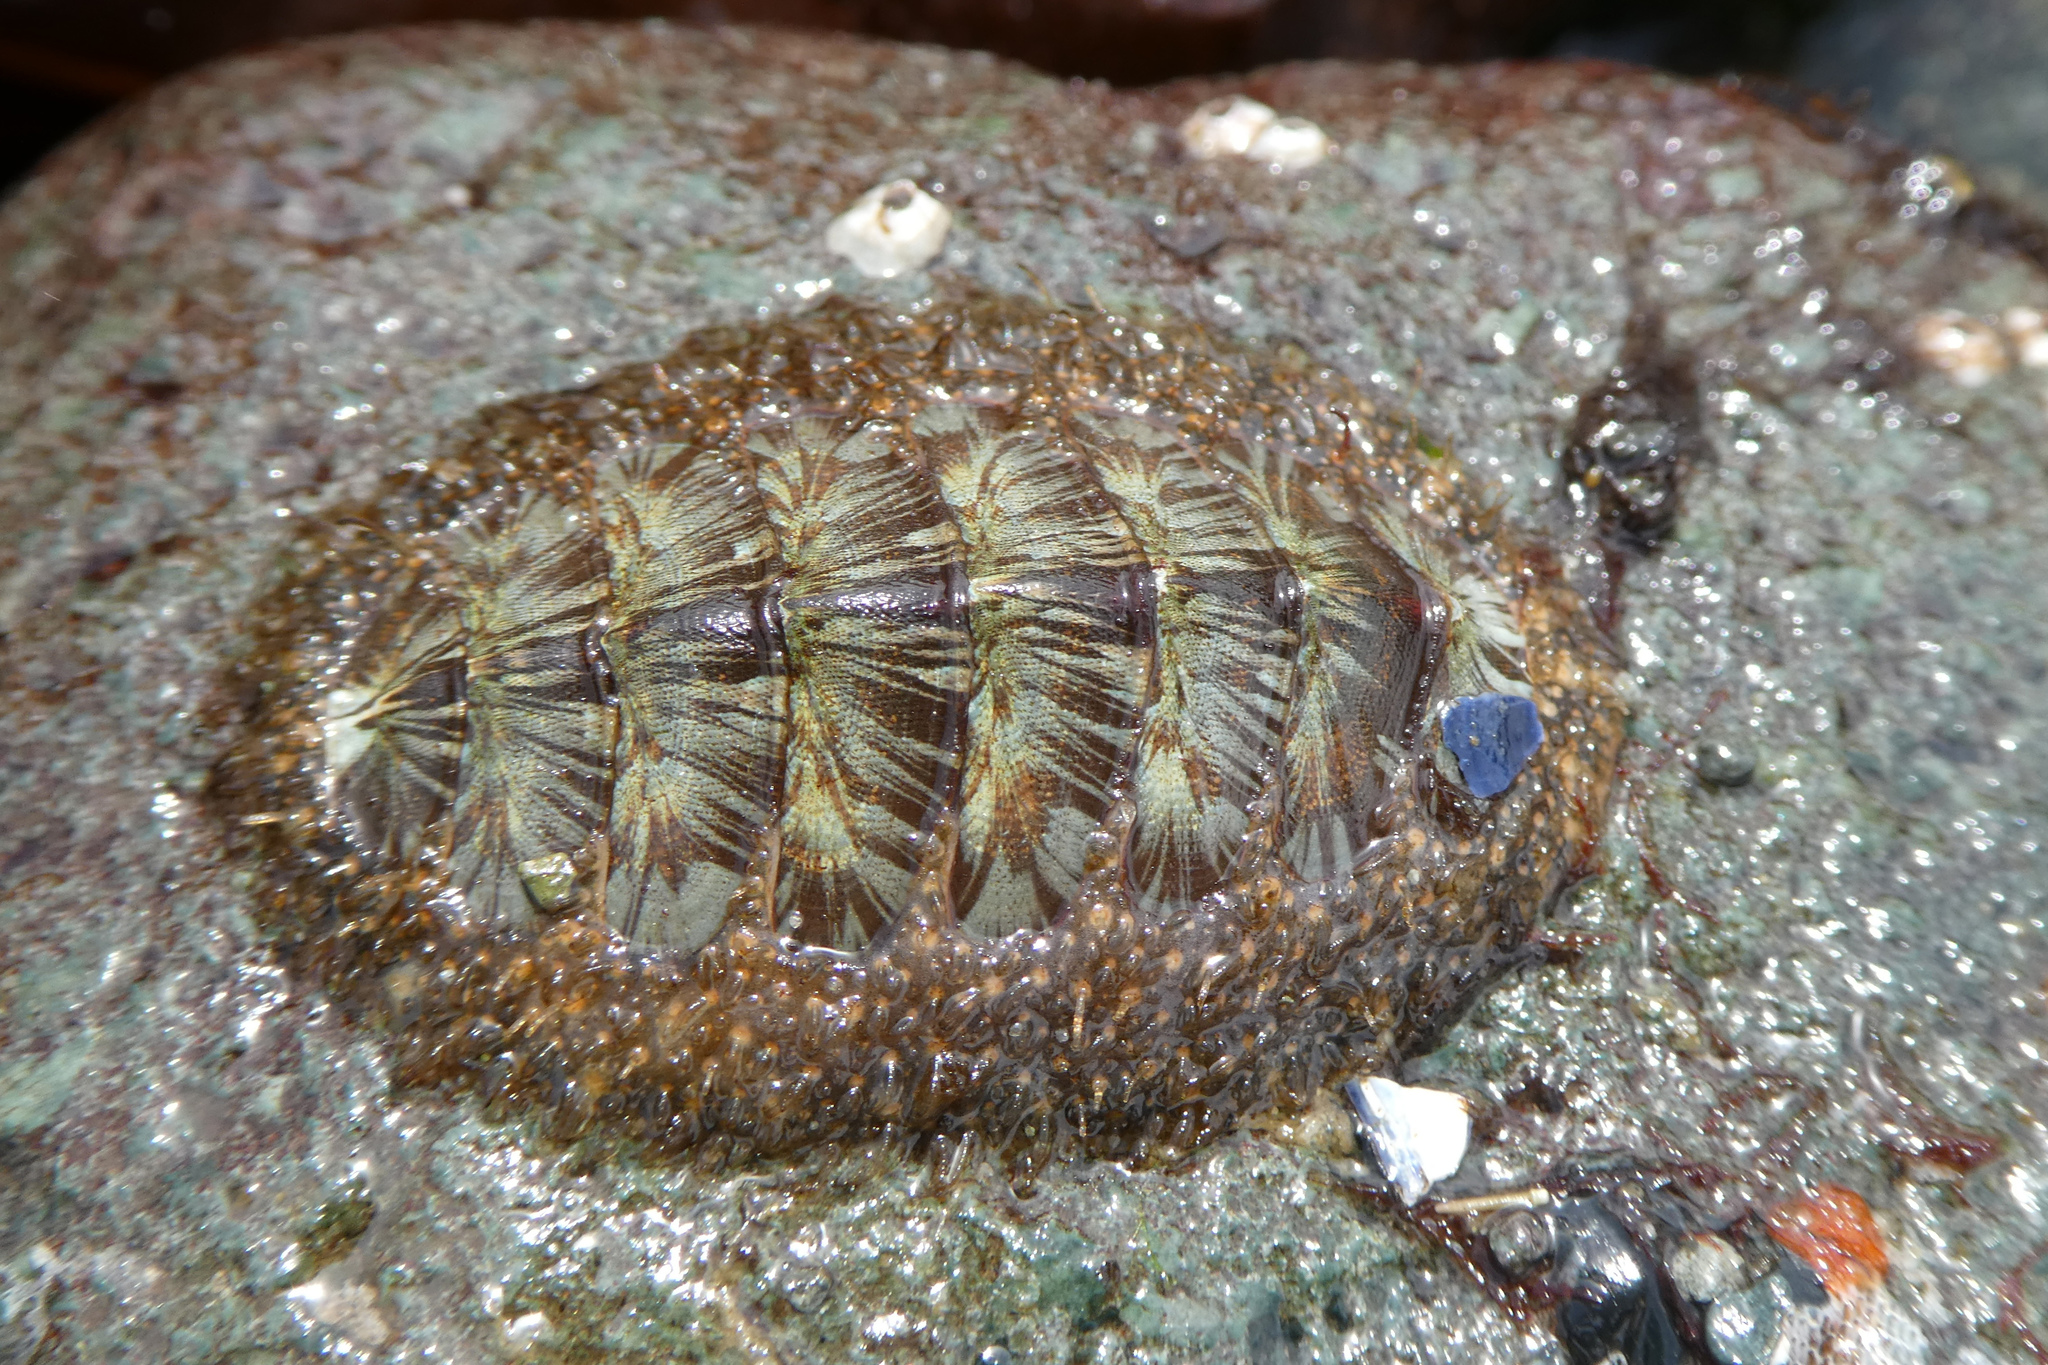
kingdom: Animalia
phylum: Mollusca
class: Polyplacophora
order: Chitonida
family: Mopaliidae
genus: Mopalia
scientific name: Mopalia lignosa
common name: Woody chiton
